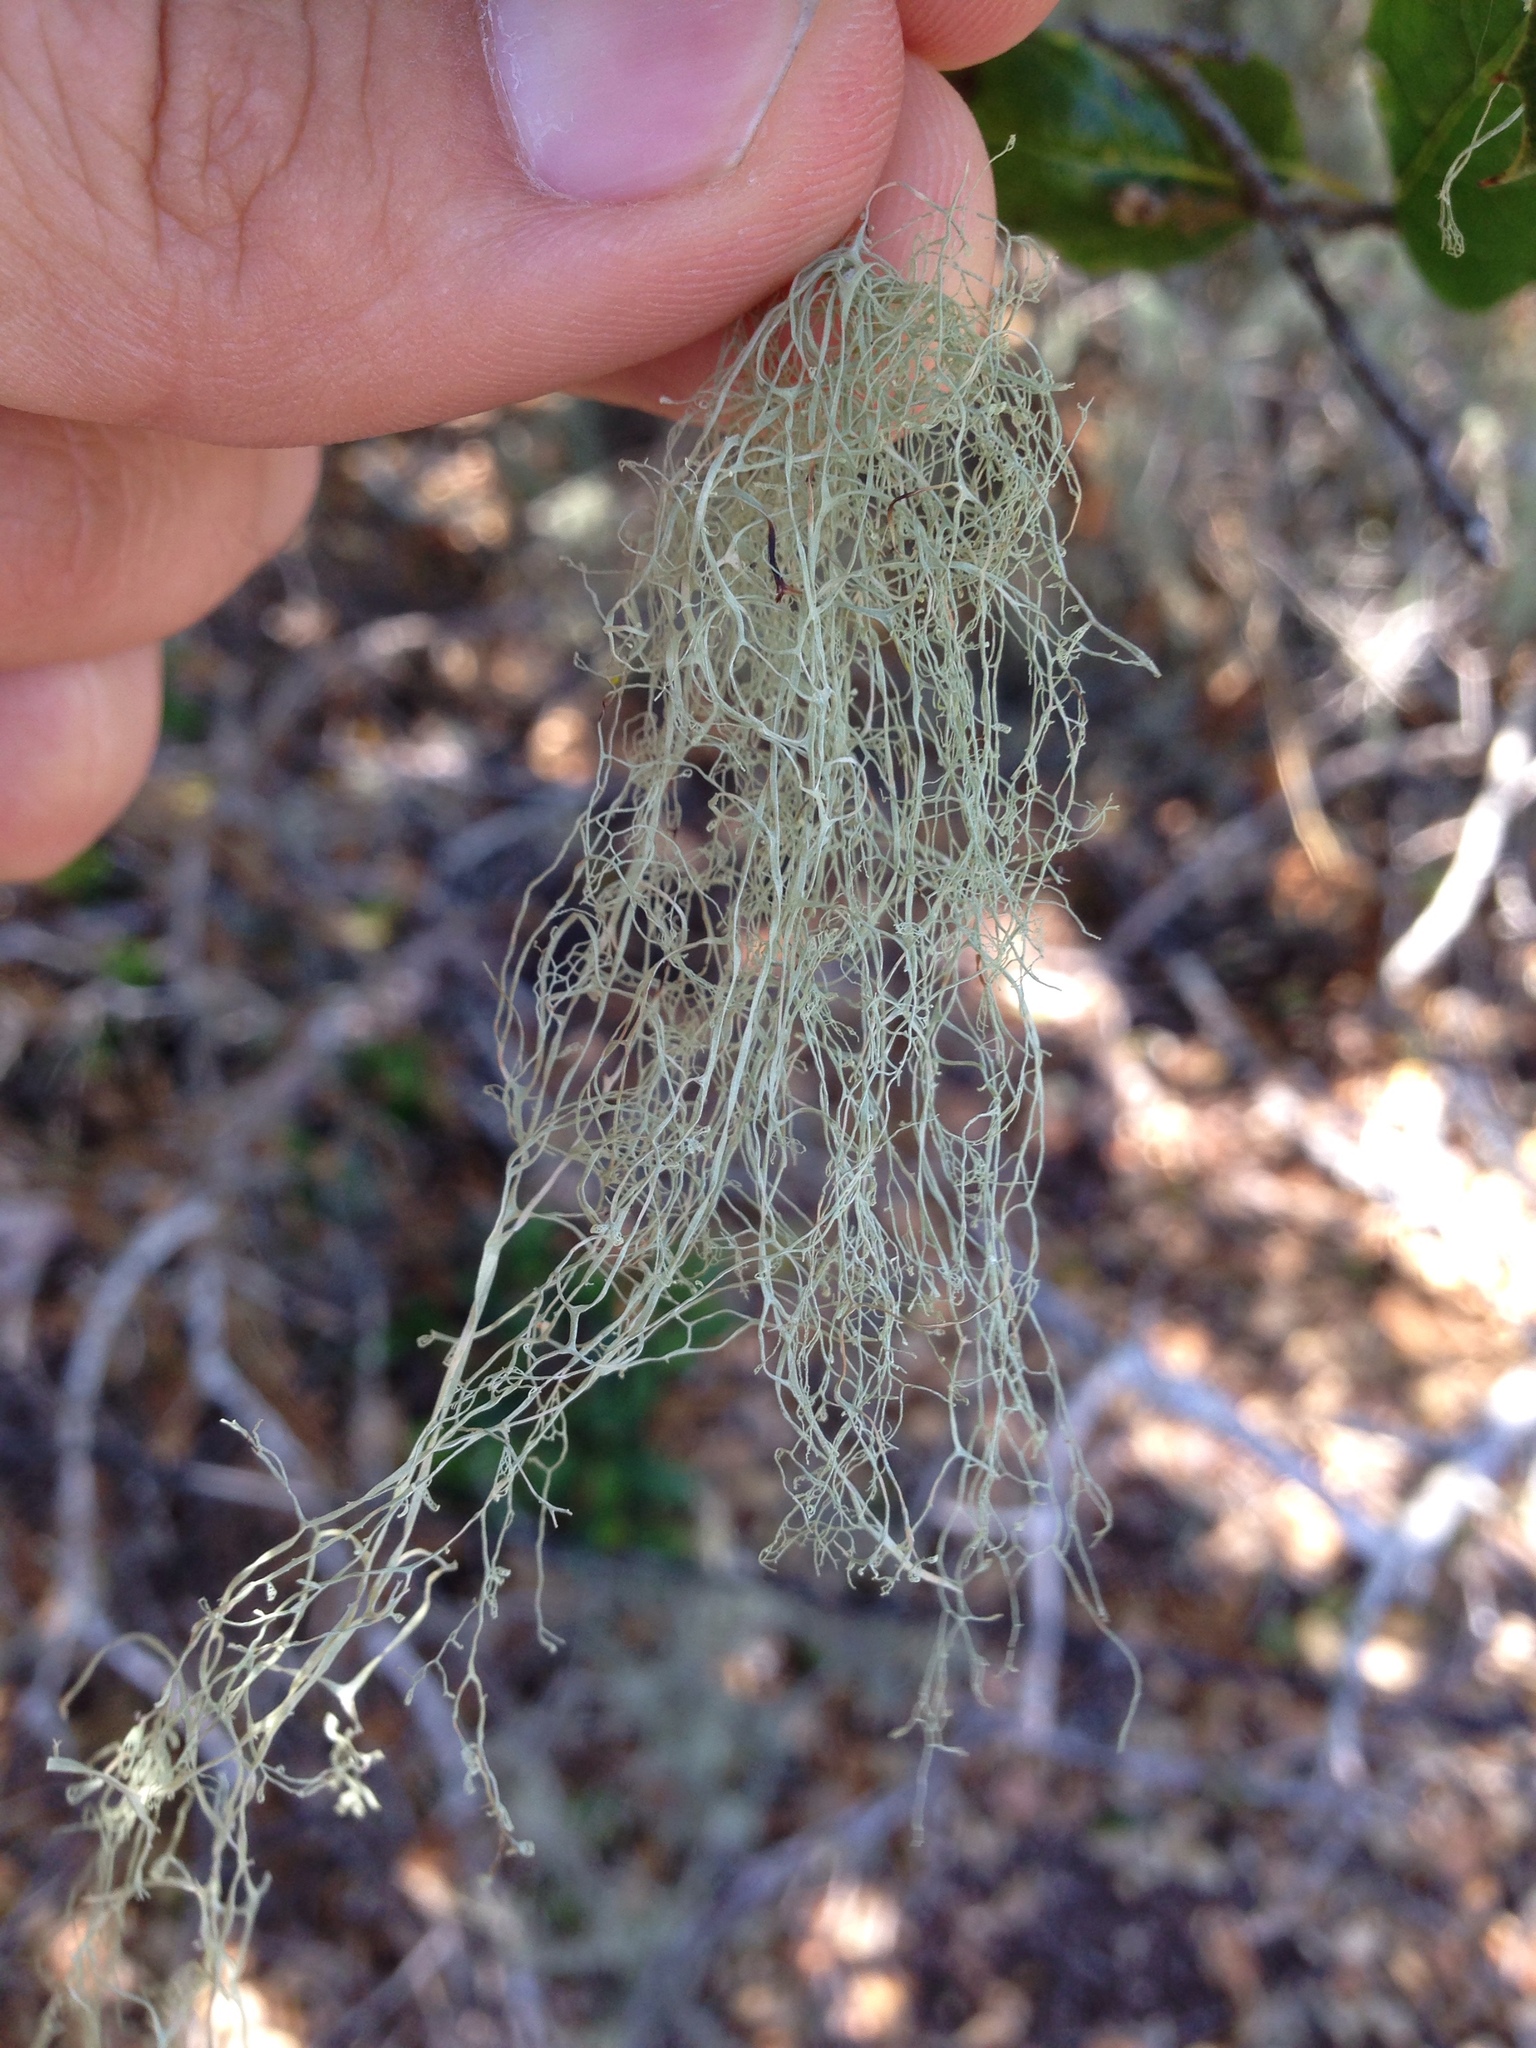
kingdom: Fungi
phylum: Ascomycota
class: Lecanoromycetes
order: Lecanorales
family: Ramalinaceae
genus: Ramalina
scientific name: Ramalina menziesii
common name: Lace lichen
